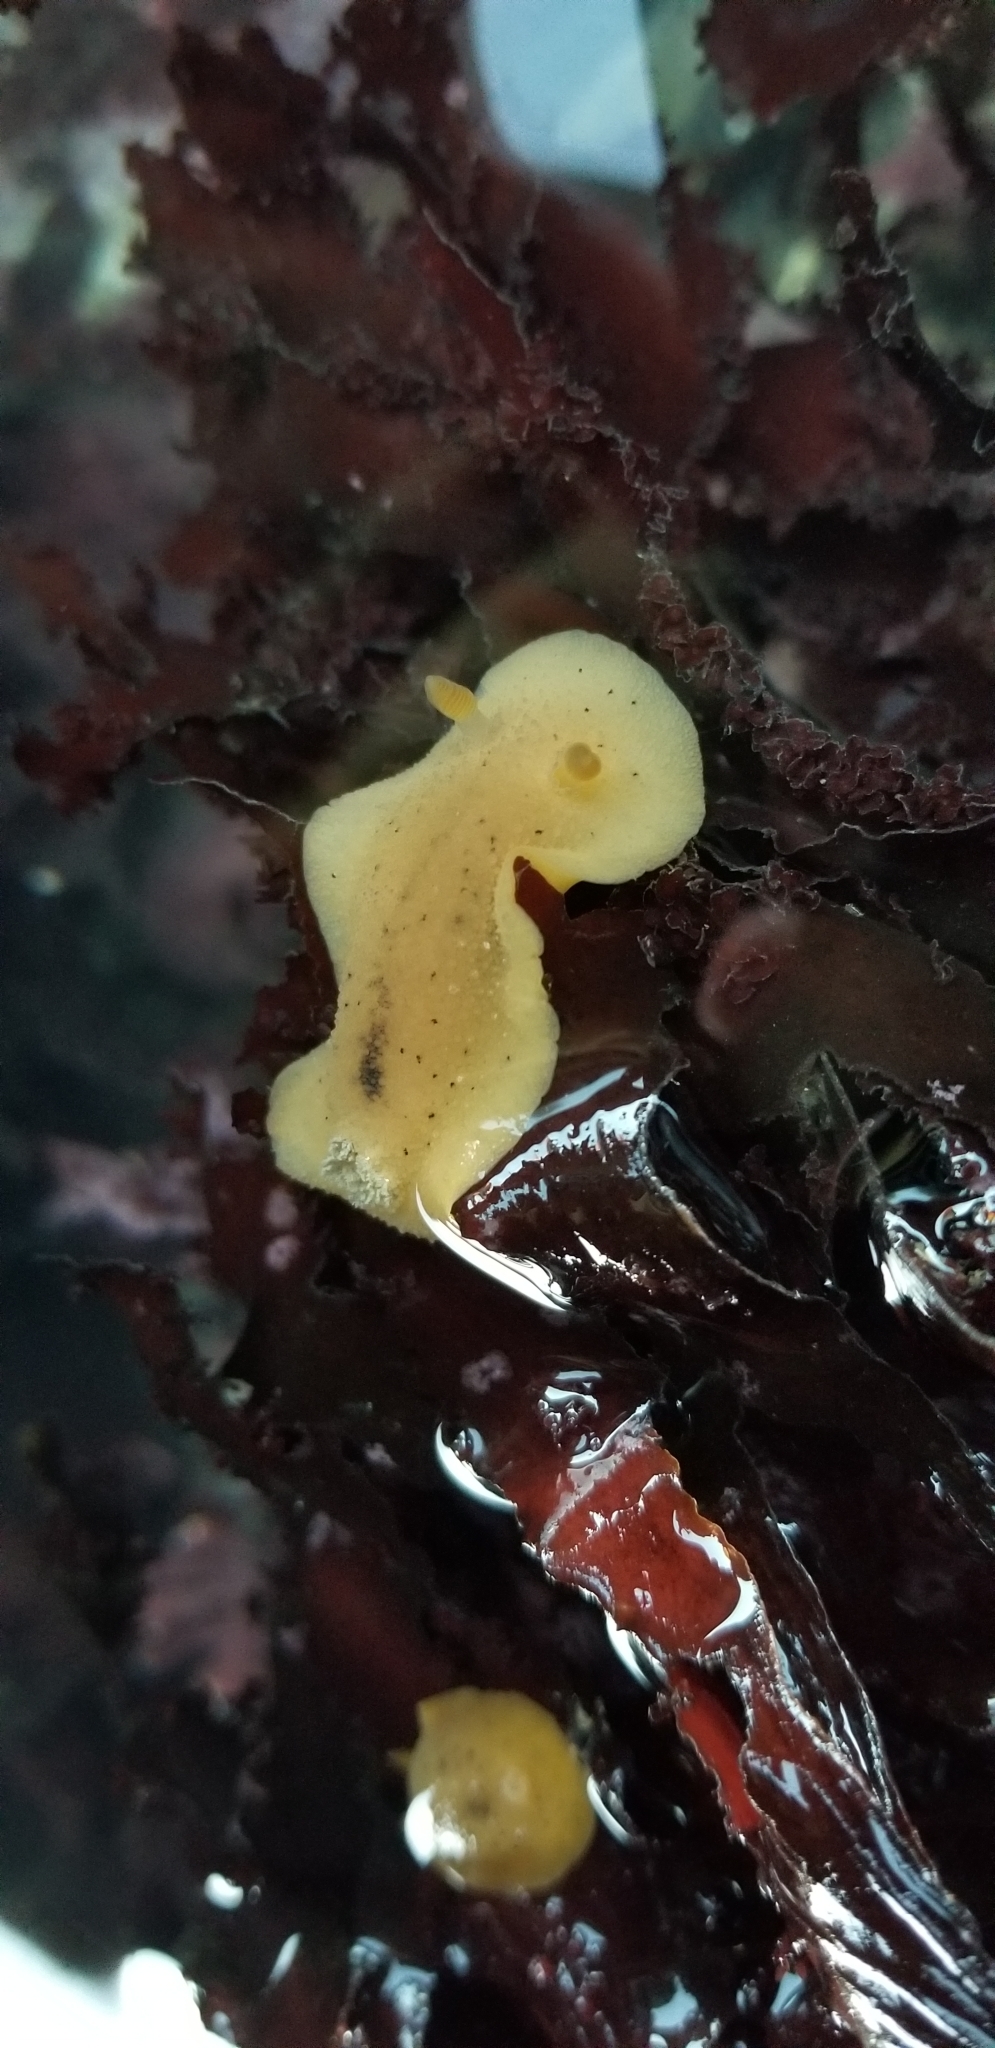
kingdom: Animalia
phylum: Mollusca
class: Gastropoda
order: Nudibranchia
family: Discodorididae
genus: Geitodoris
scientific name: Geitodoris heathi
